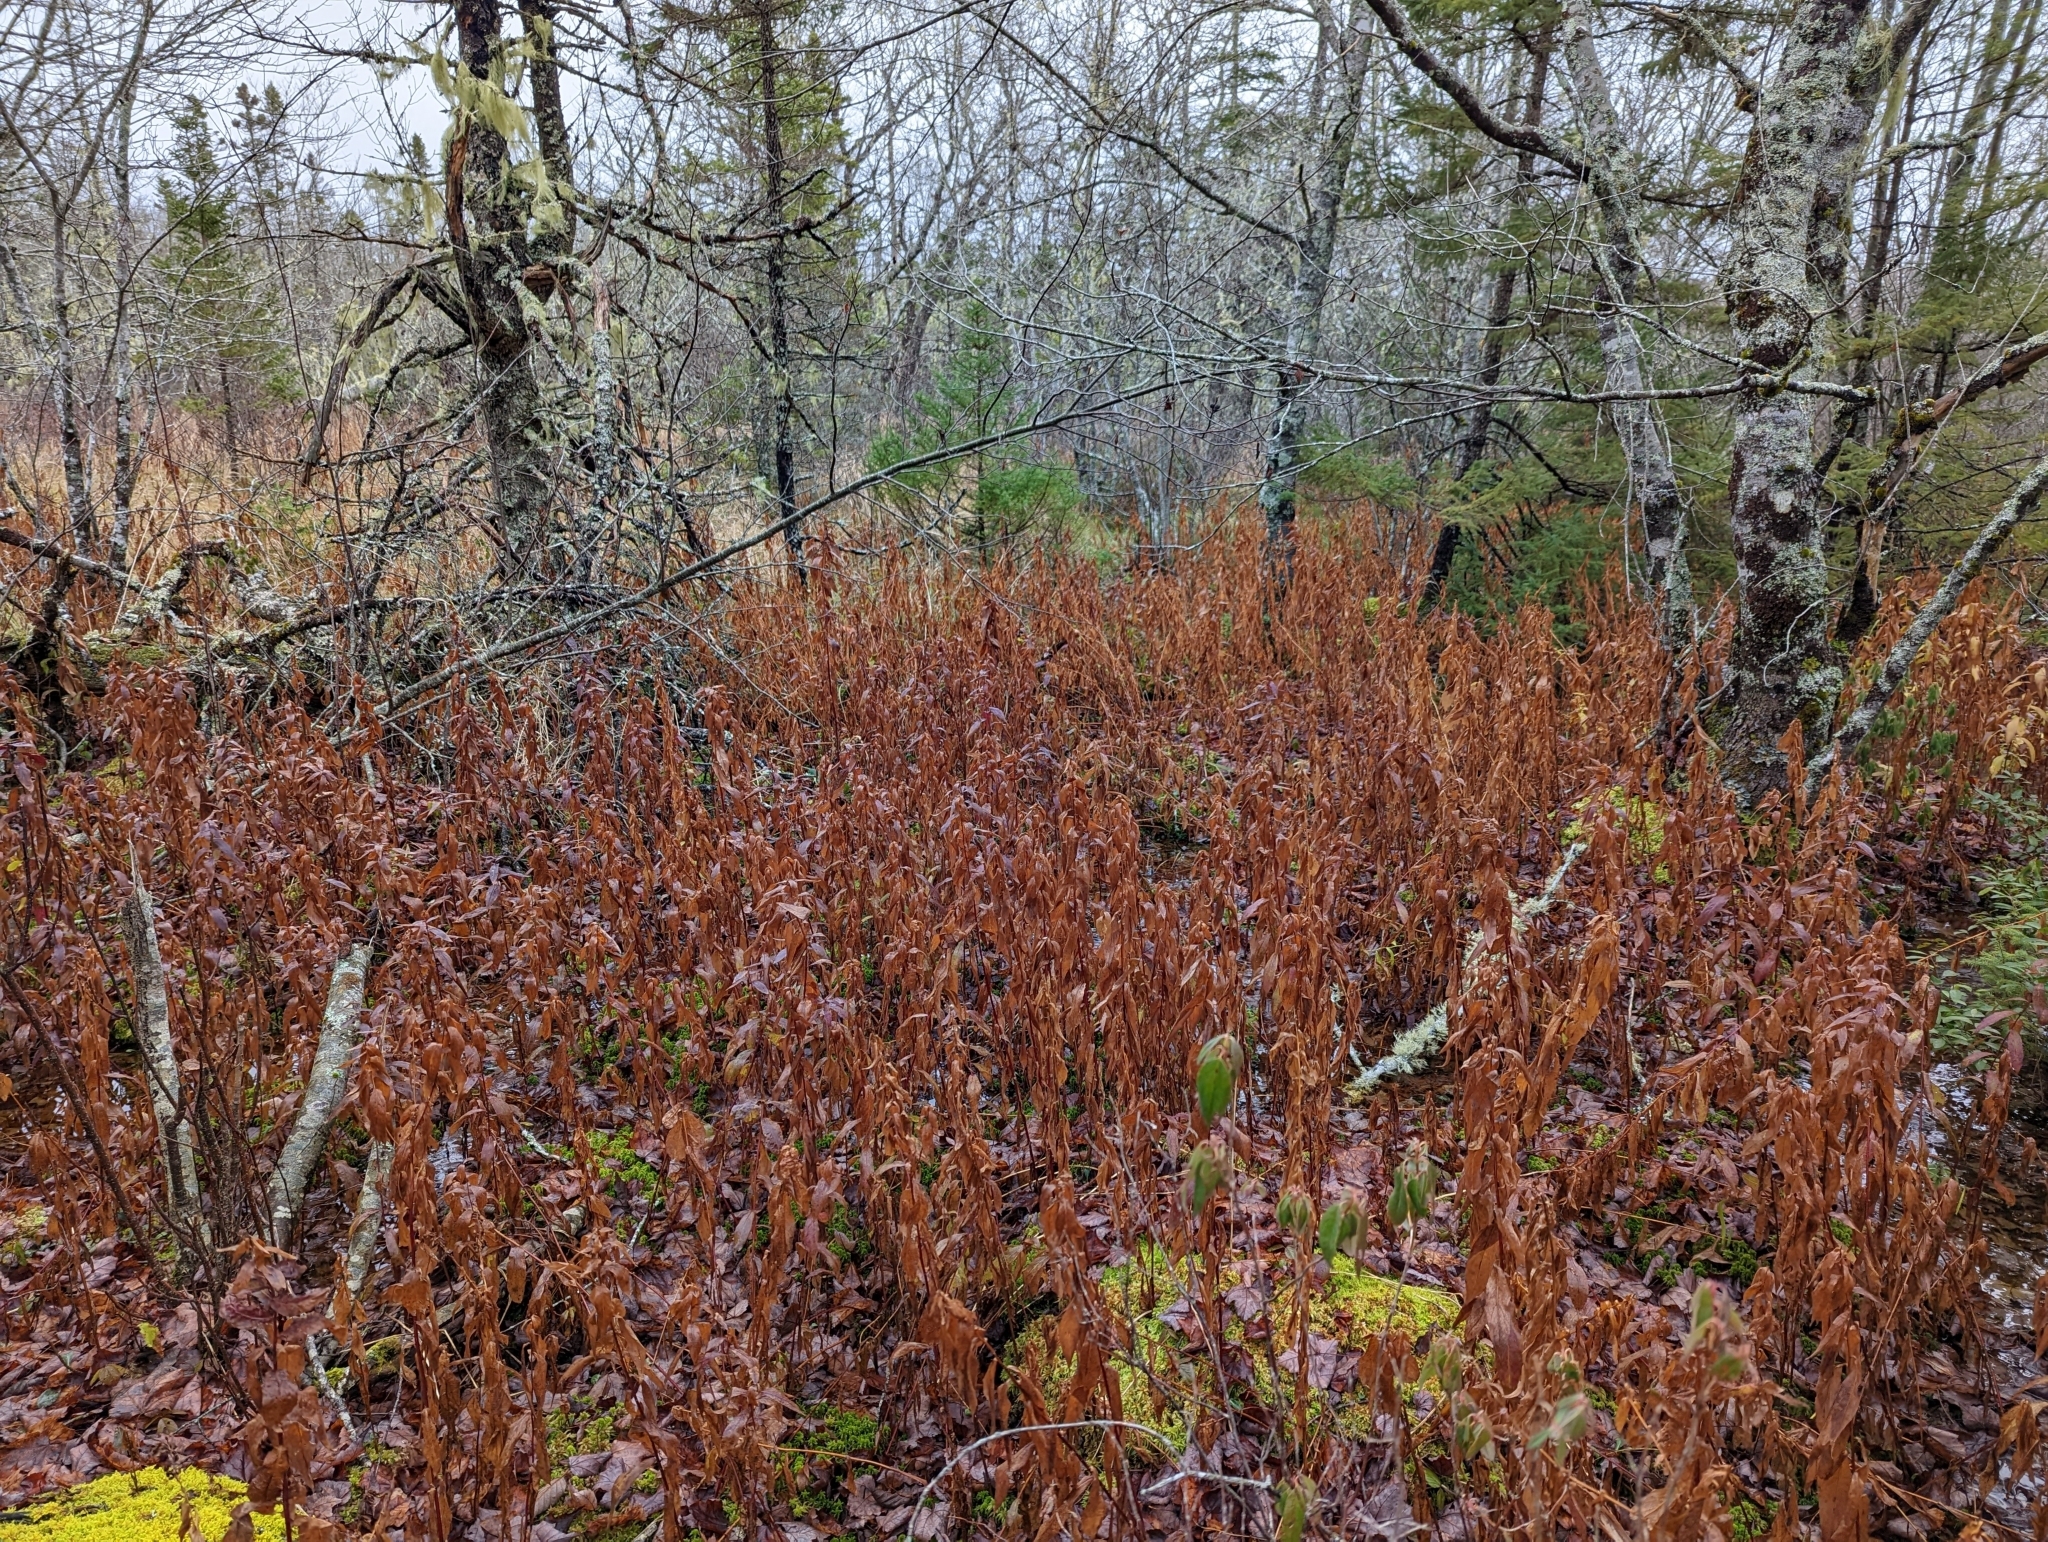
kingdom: Plantae
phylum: Tracheophyta
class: Magnoliopsida
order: Asterales
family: Asteraceae
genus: Solidago
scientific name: Solidago latissimifolia
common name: Elliott's goldenrod
